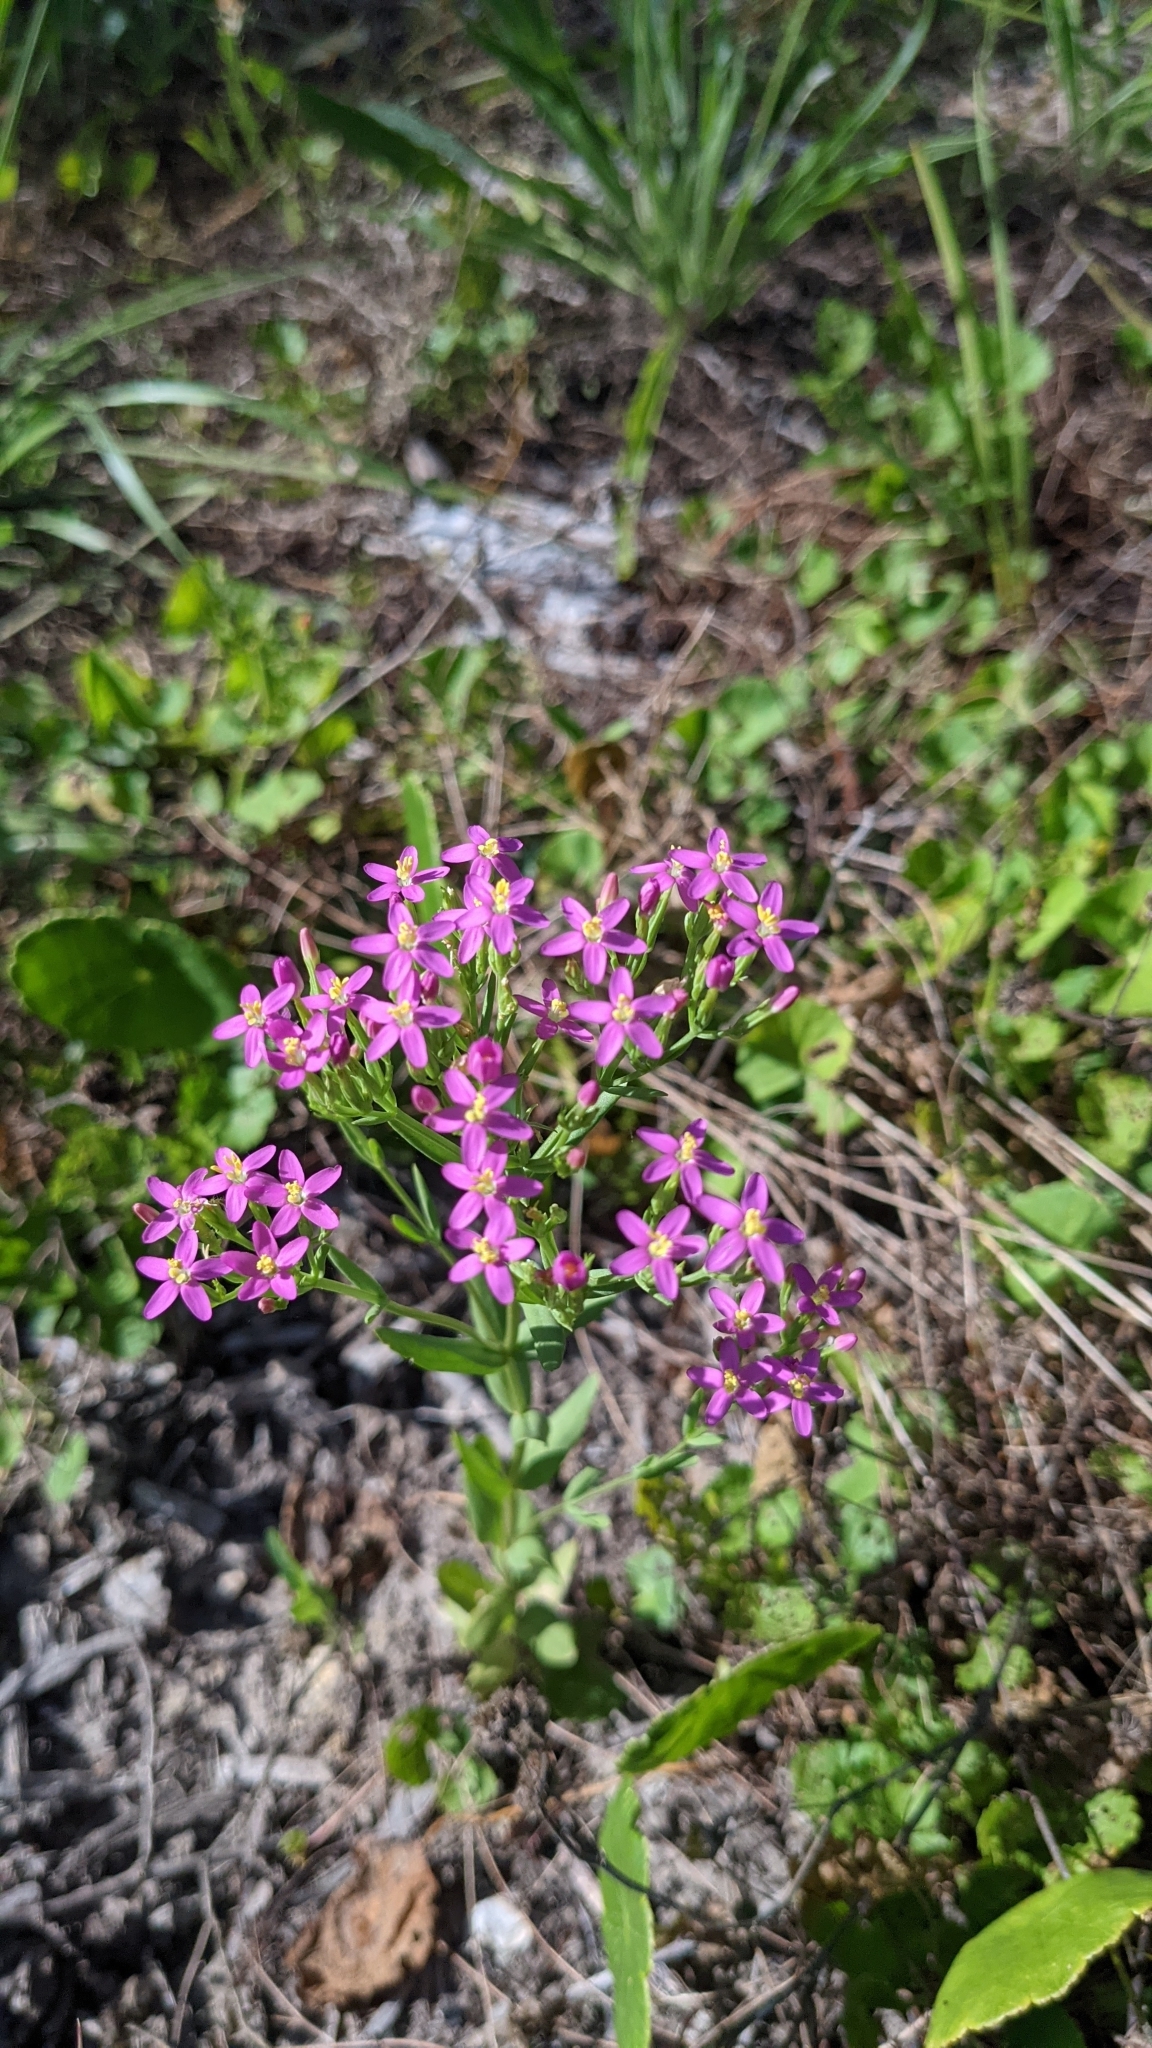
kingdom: Plantae
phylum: Tracheophyta
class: Magnoliopsida
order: Gentianales
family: Gentianaceae
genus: Centaurium
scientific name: Centaurium tenuiflorum
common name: Slender centaury
